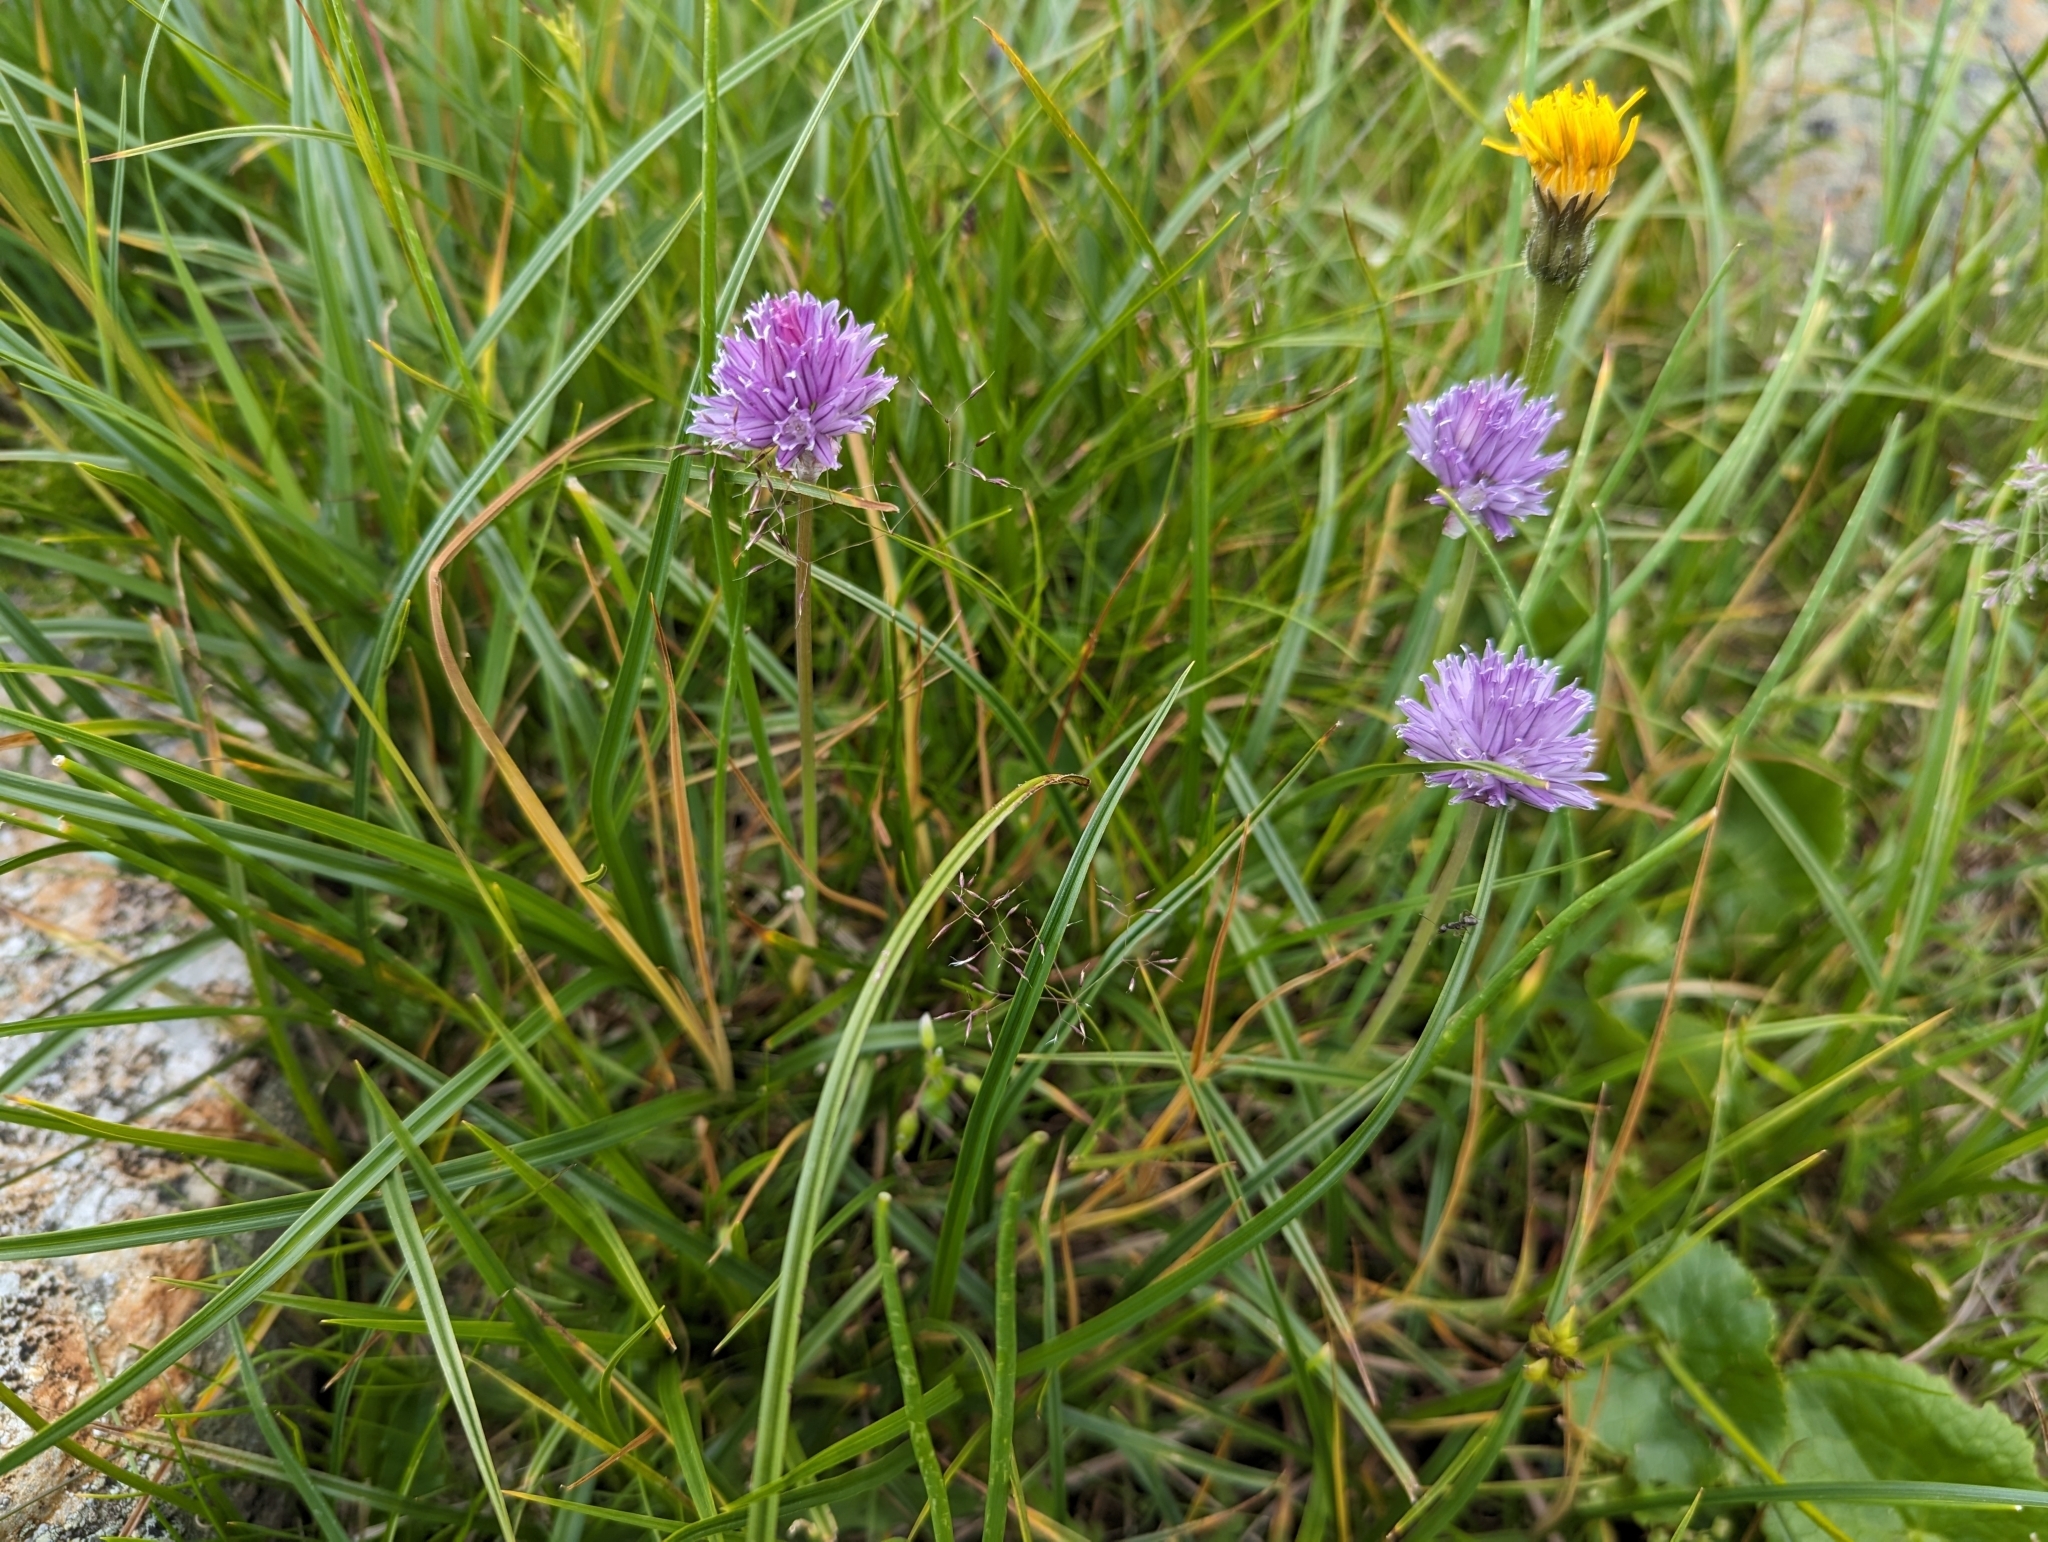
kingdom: Plantae
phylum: Tracheophyta
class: Liliopsida
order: Asparagales
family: Amaryllidaceae
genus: Allium
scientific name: Allium schoenoprasum
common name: Chives
